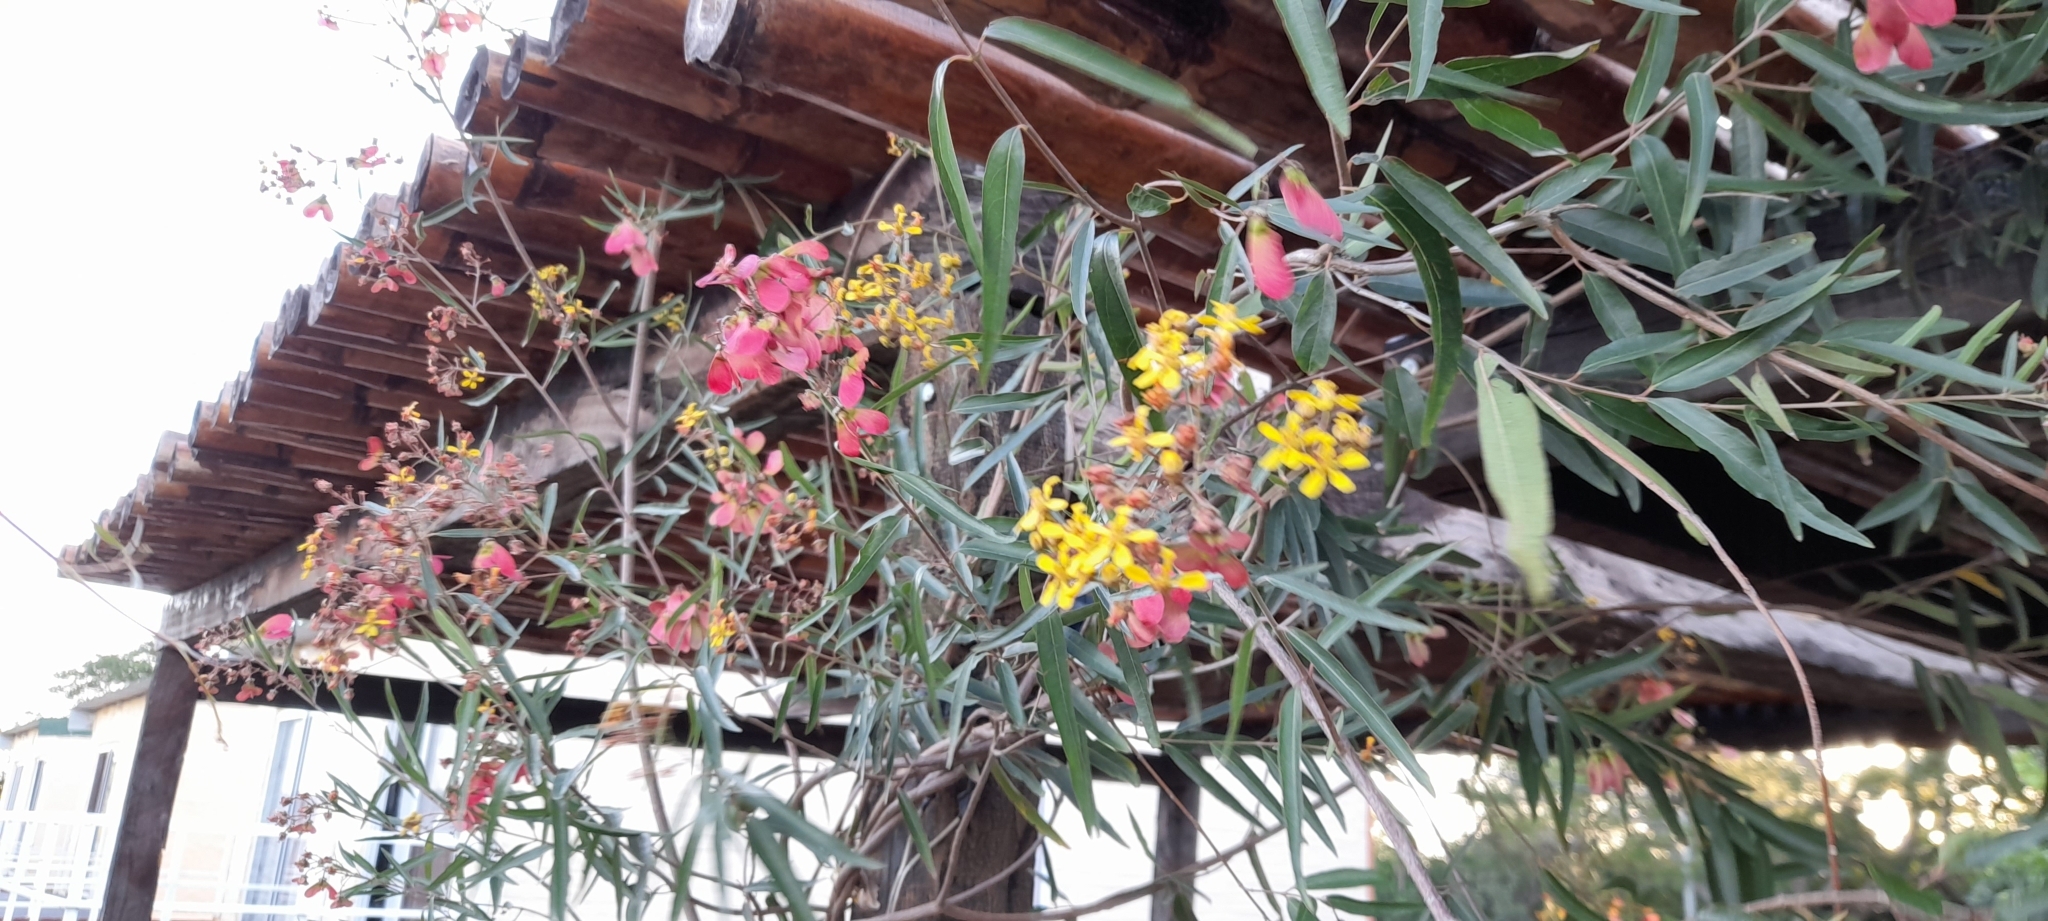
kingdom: Plantae
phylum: Tracheophyta
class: Magnoliopsida
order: Malpighiales
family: Malpighiaceae
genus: Heteropterys
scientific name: Heteropterys glabra
